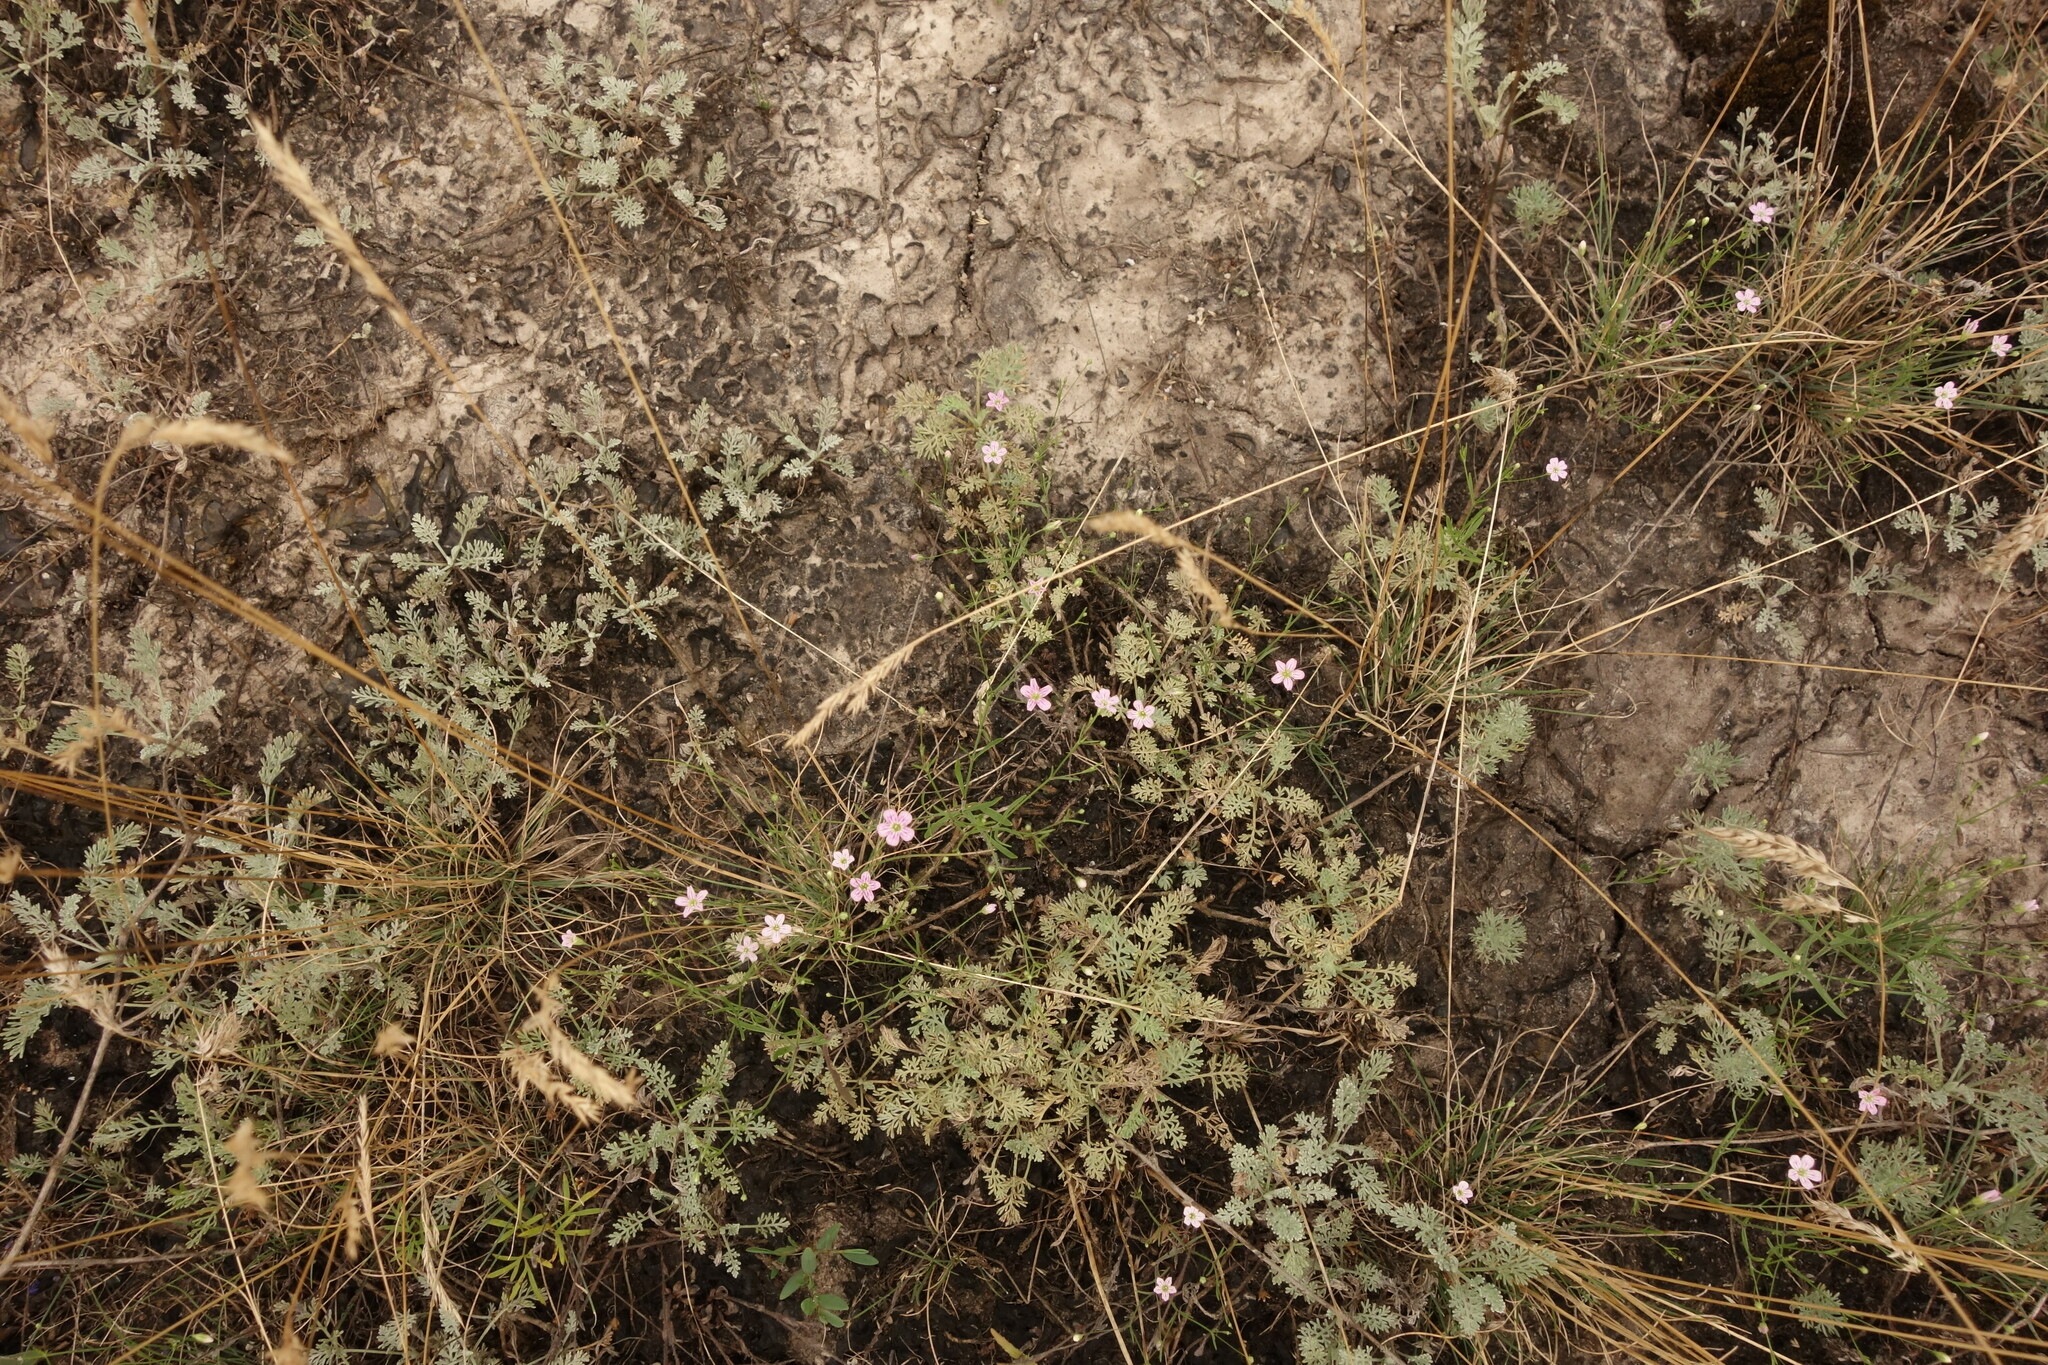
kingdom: Plantae
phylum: Tracheophyta
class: Magnoliopsida
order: Caryophyllales
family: Caryophyllaceae
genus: Psammophiliella
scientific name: Psammophiliella muralis
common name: Cushion baby's-breath
